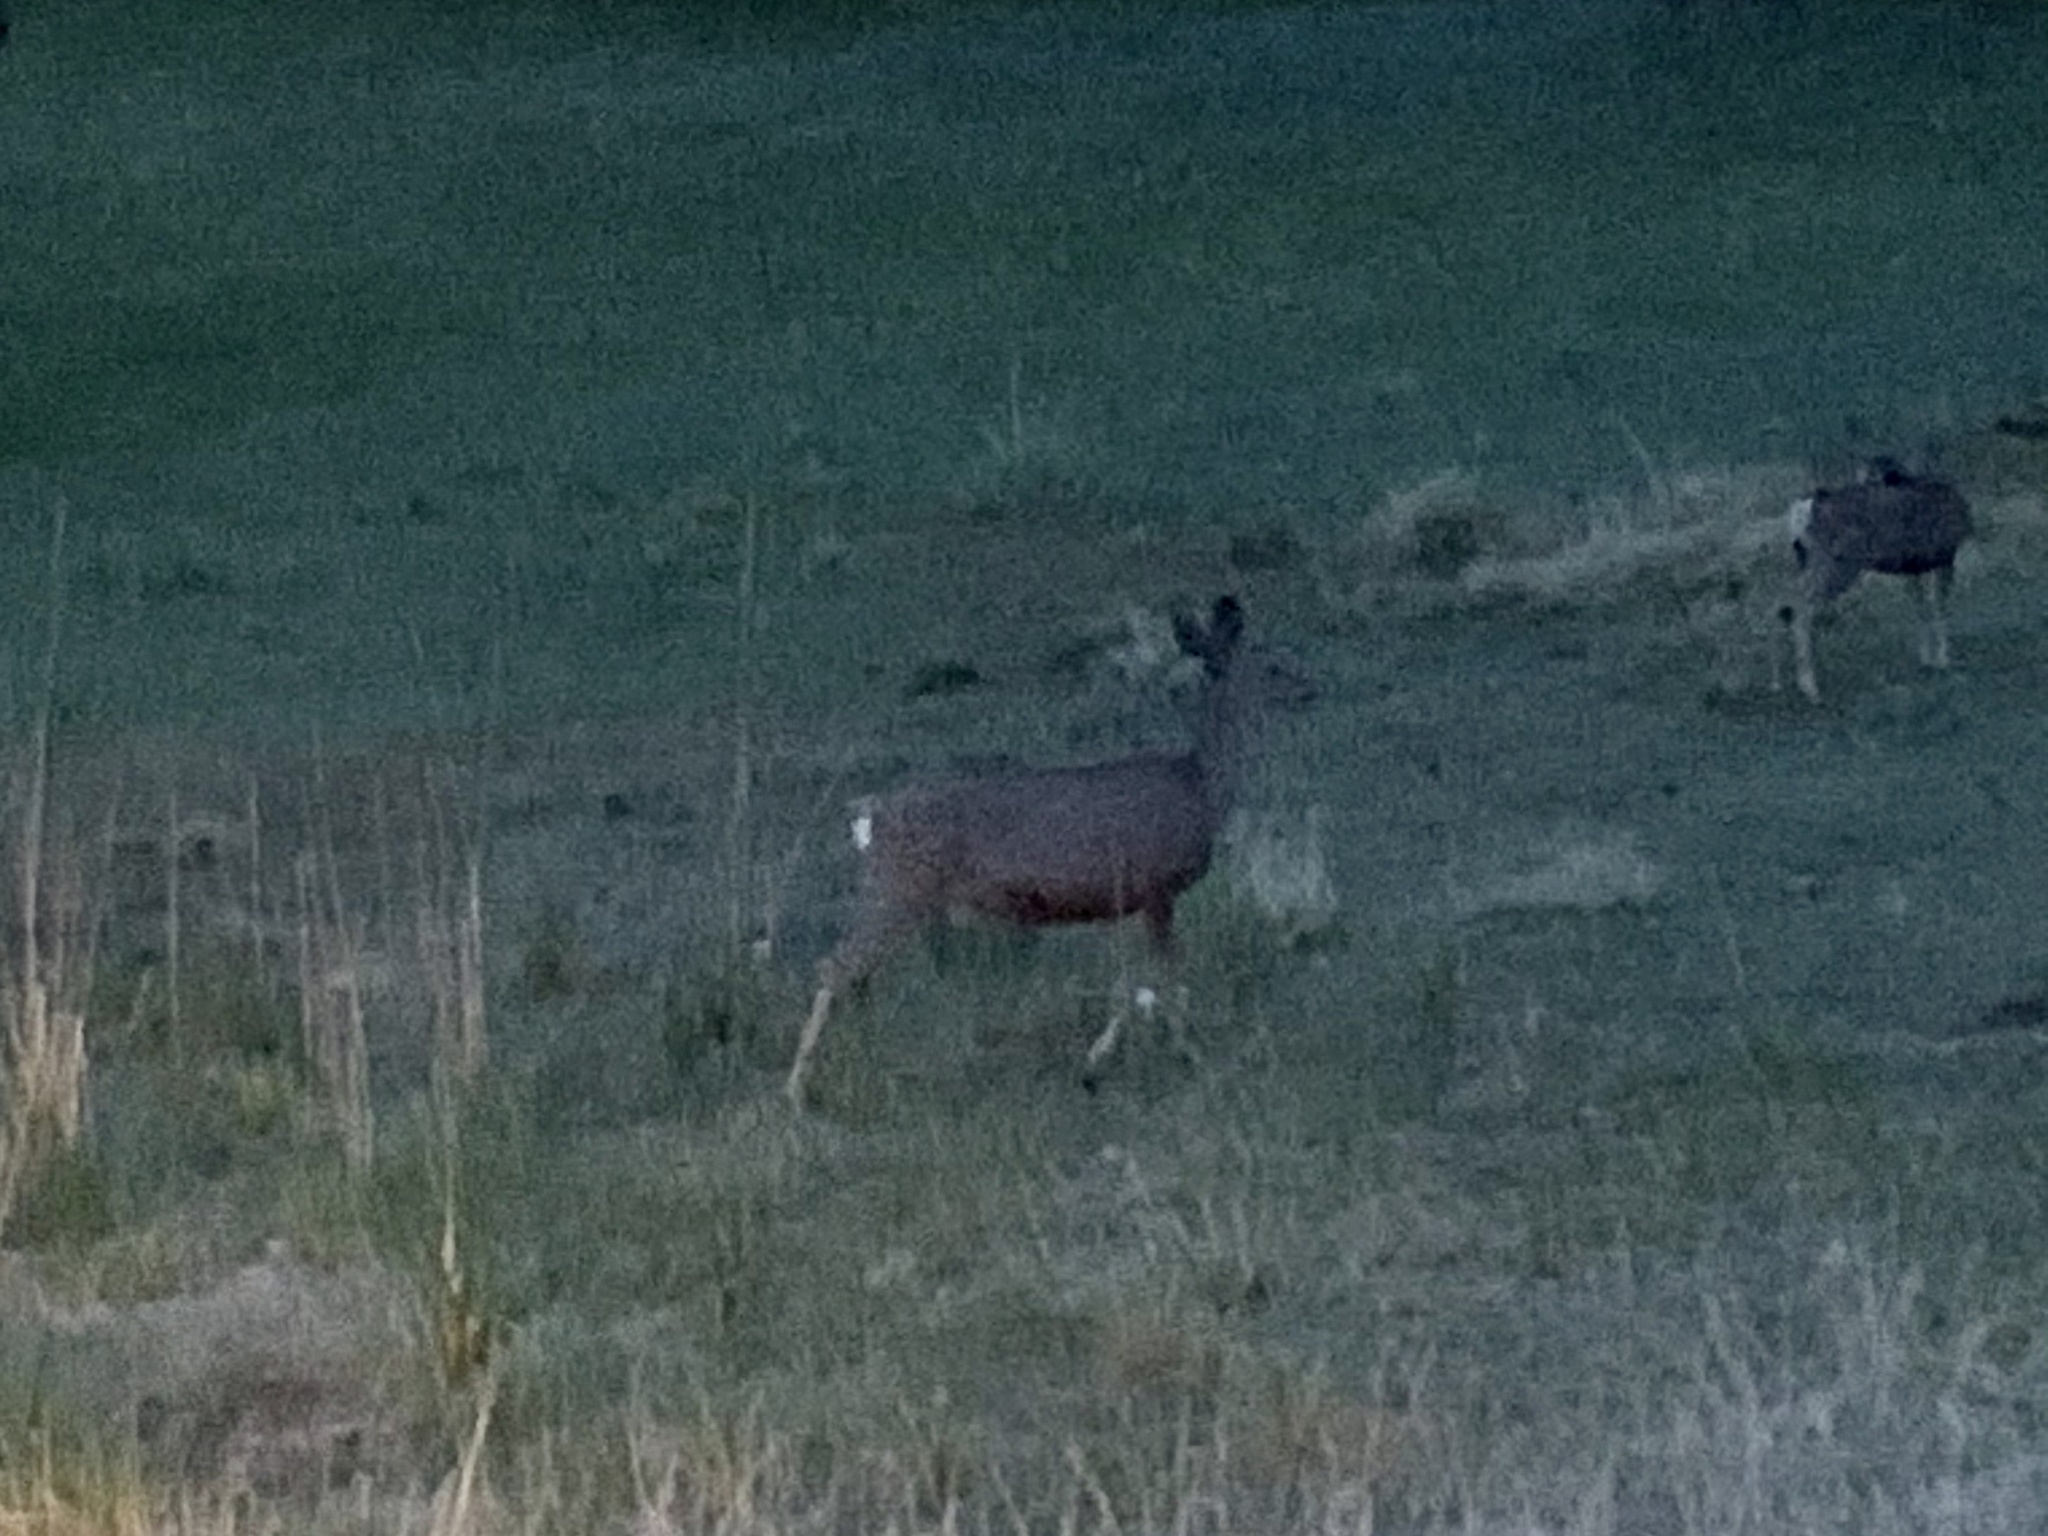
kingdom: Animalia
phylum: Chordata
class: Mammalia
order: Artiodactyla
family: Cervidae
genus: Odocoileus
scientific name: Odocoileus hemionus
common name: Mule deer
